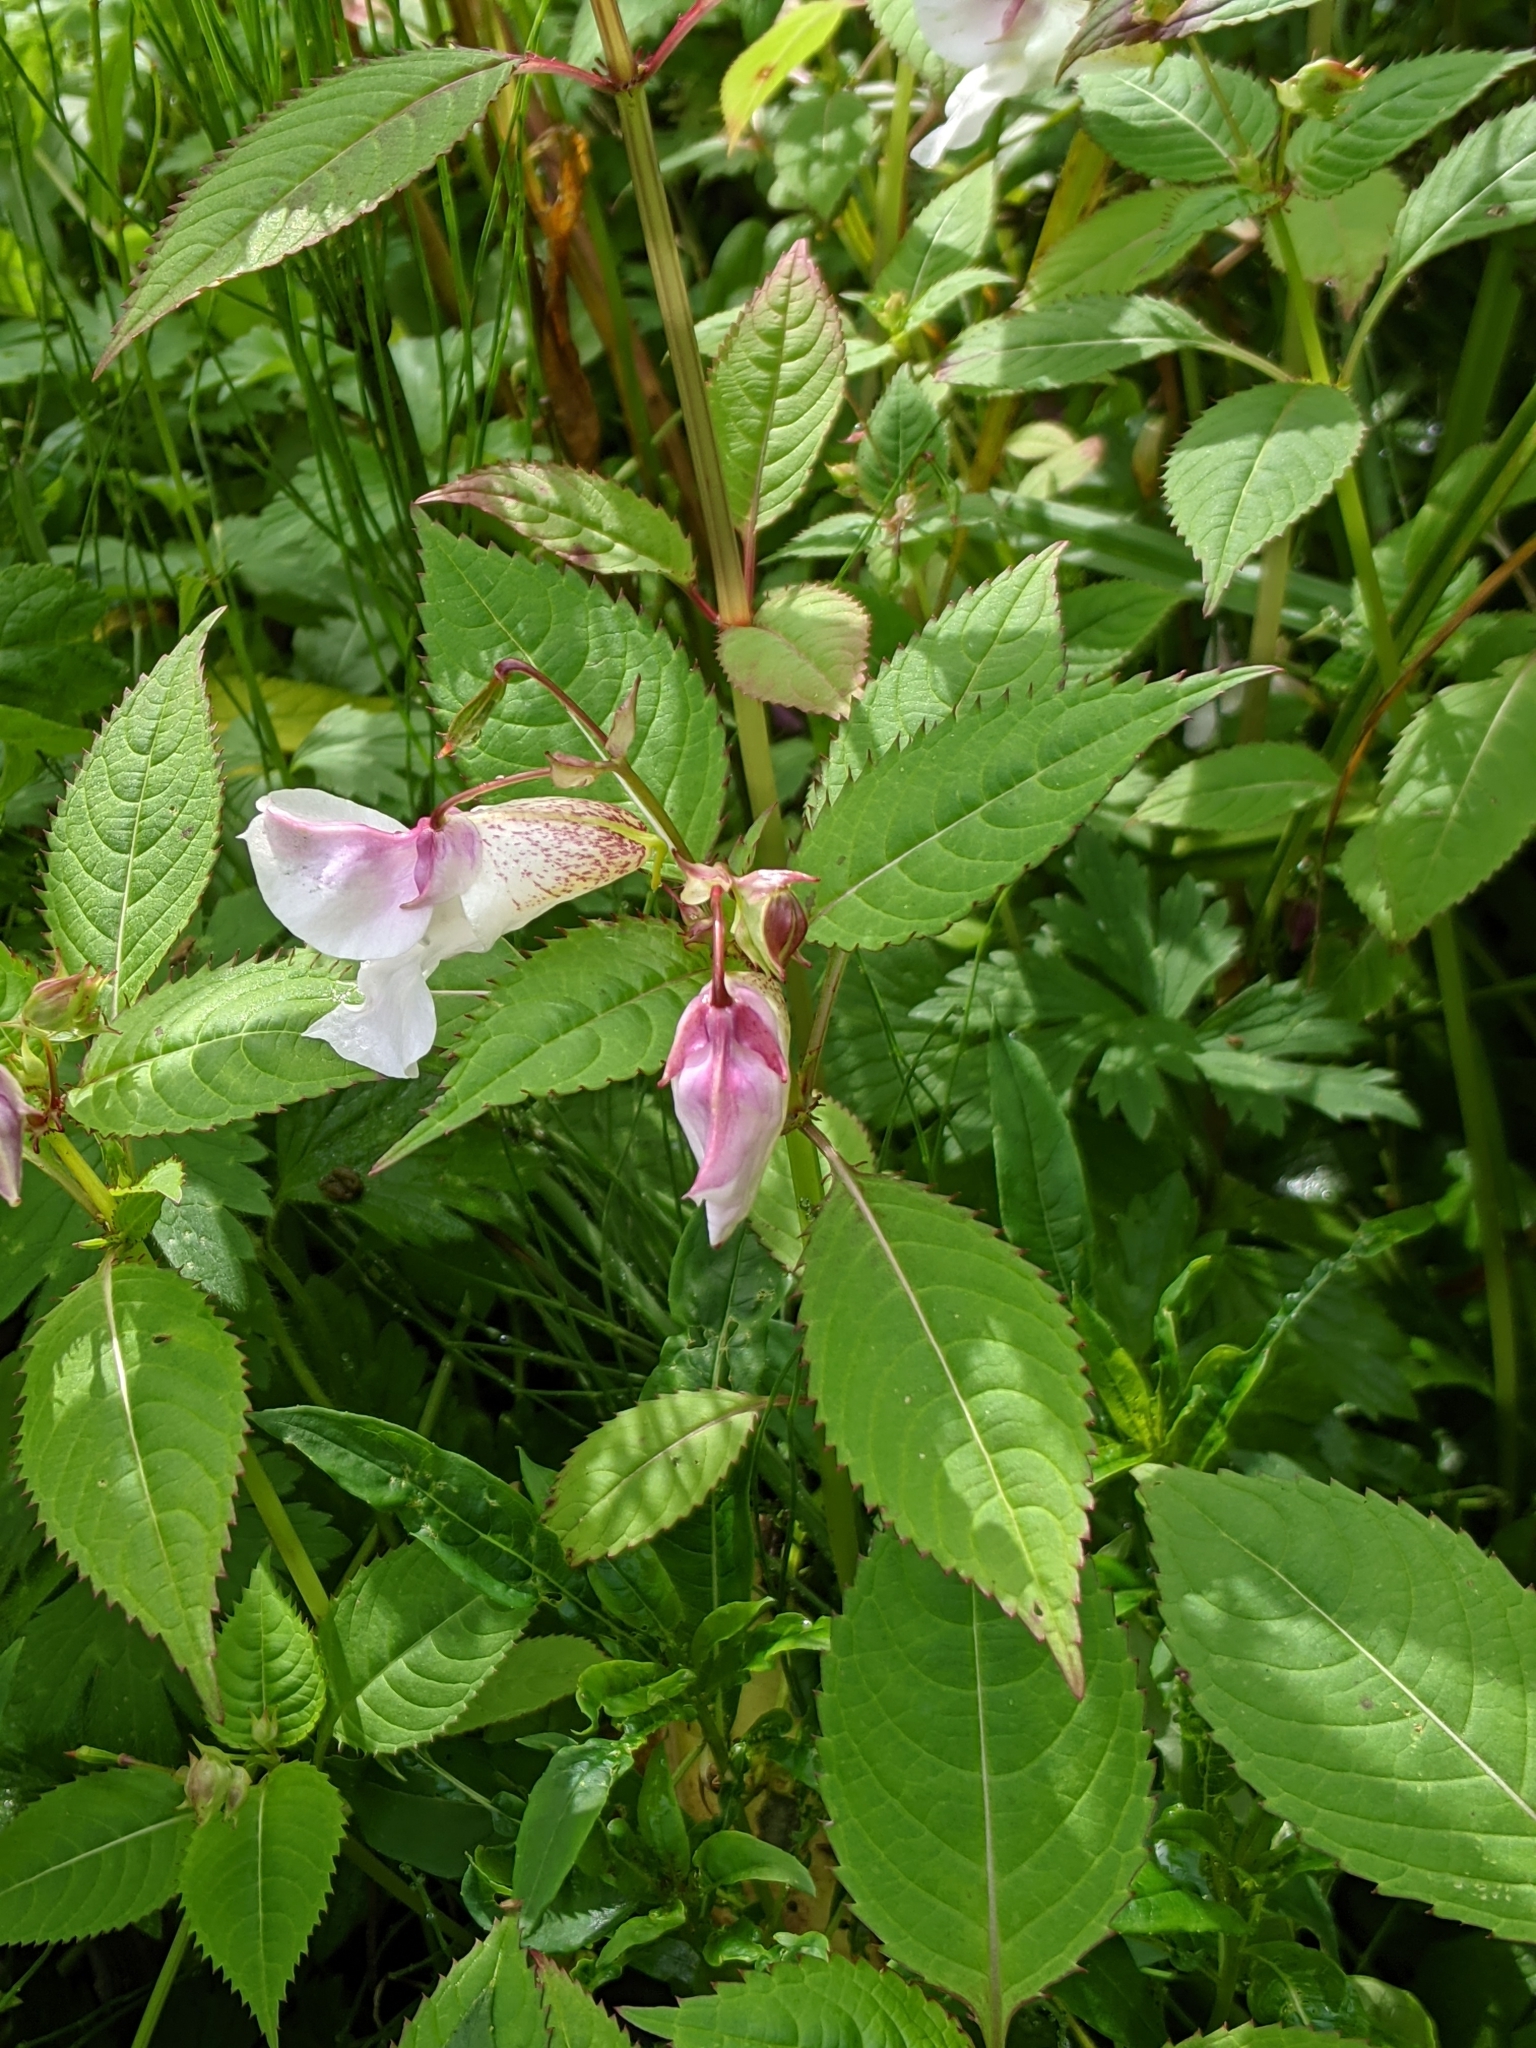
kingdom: Plantae
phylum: Tracheophyta
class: Magnoliopsida
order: Ericales
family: Balsaminaceae
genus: Impatiens
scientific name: Impatiens glandulifera
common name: Himalayan balsam
